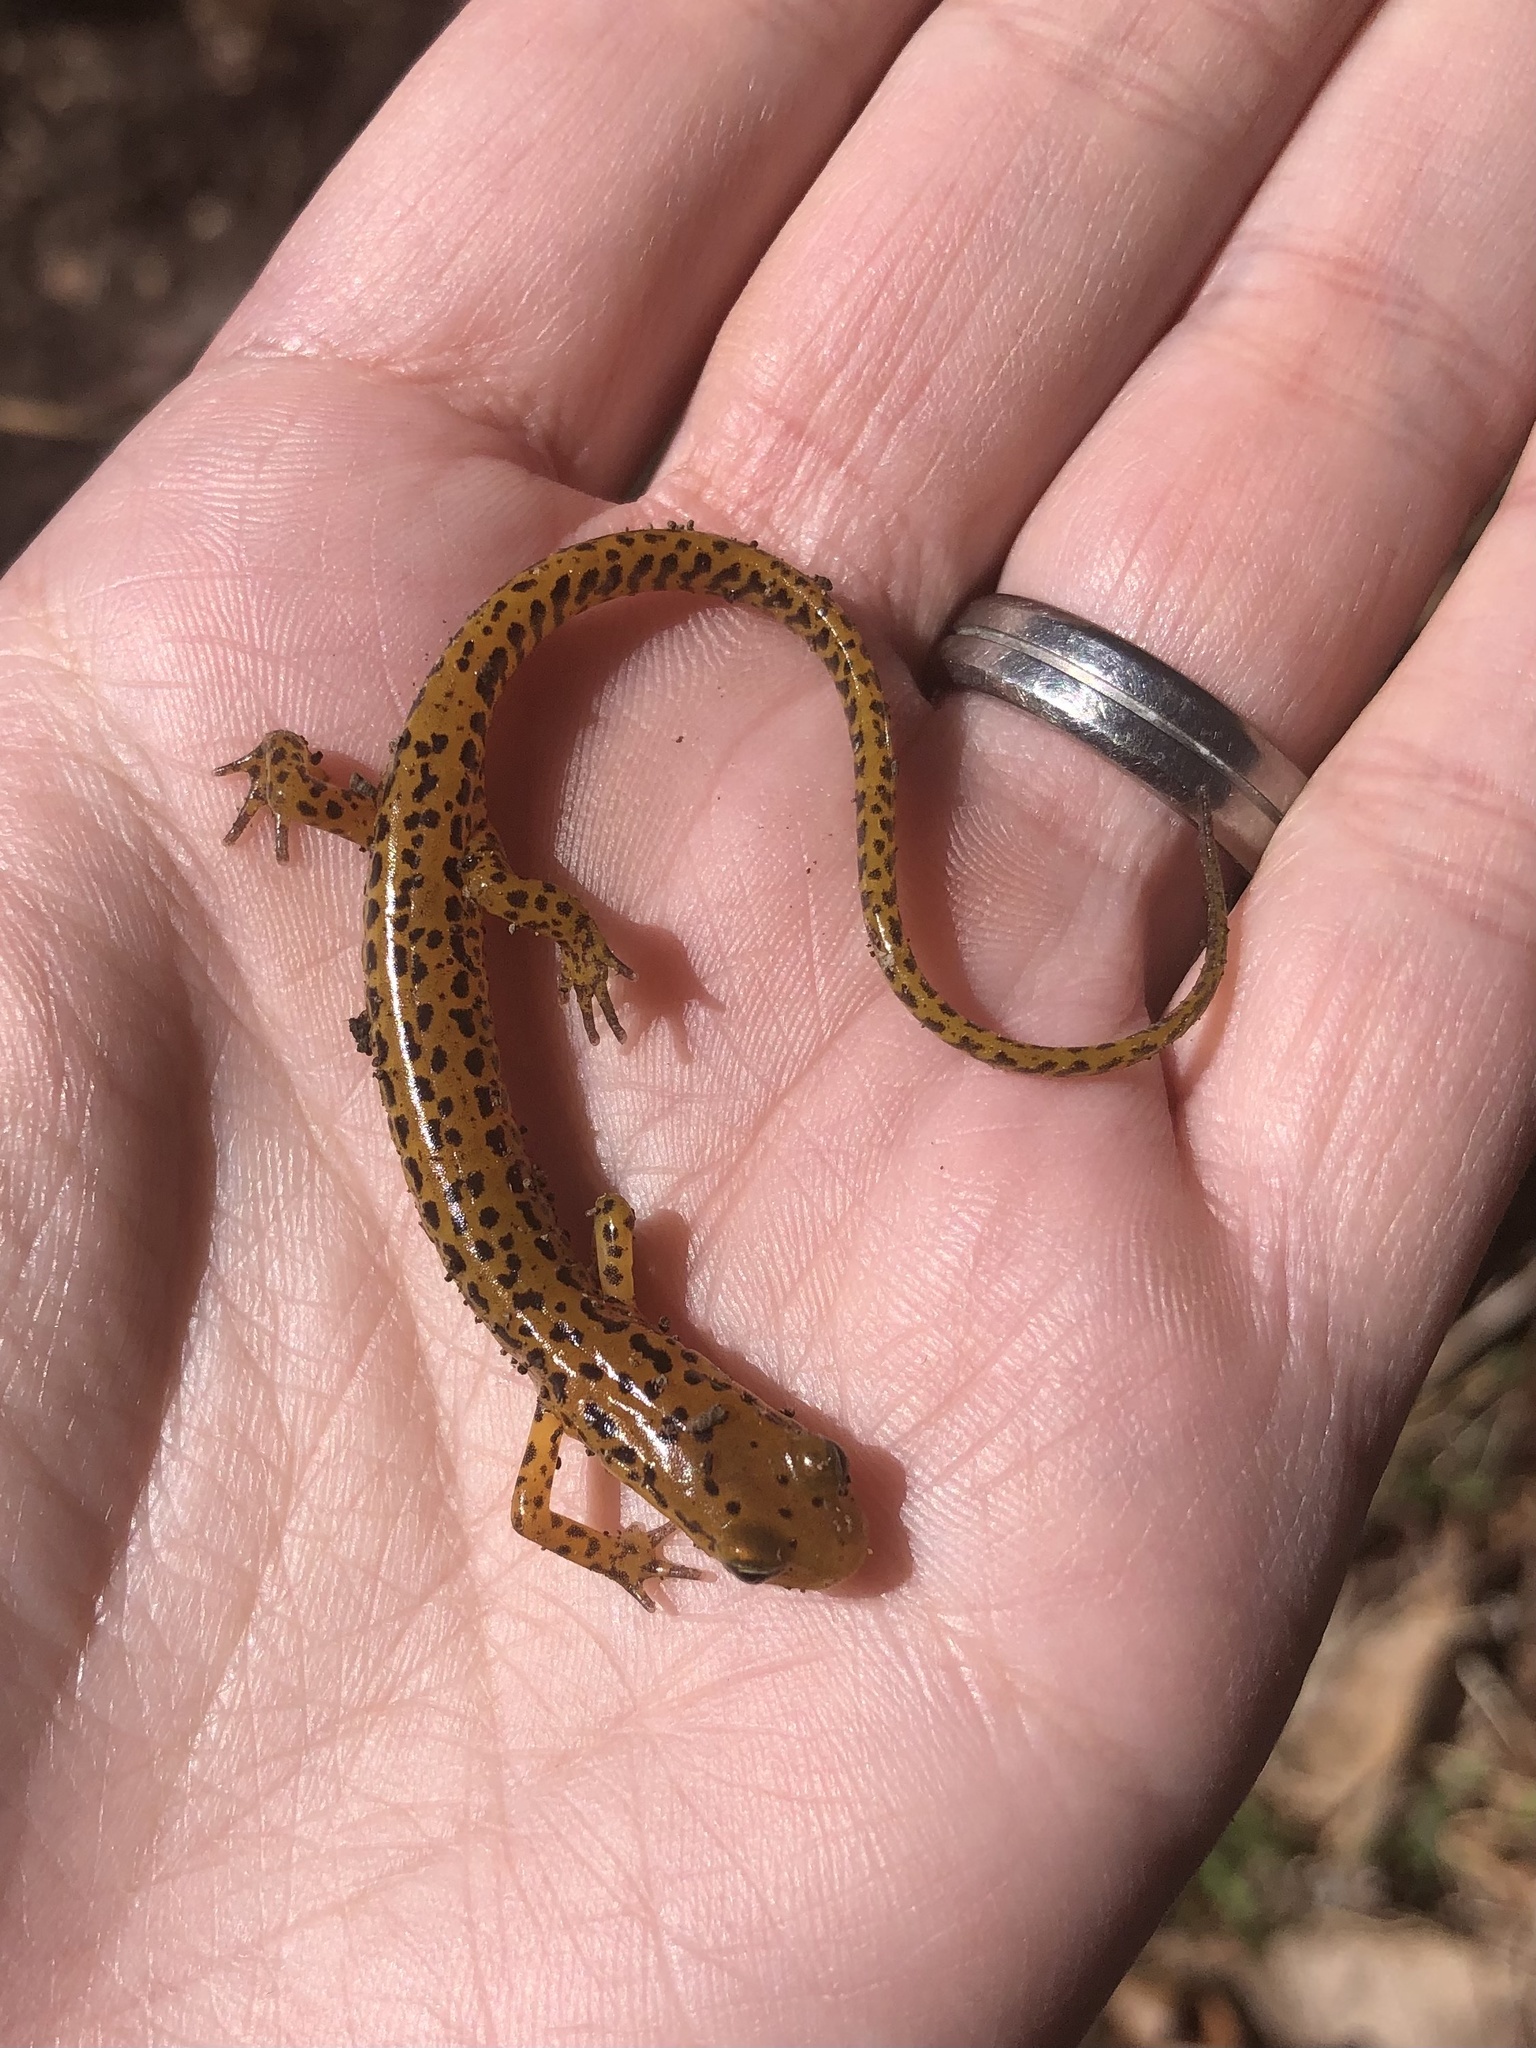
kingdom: Animalia
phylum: Chordata
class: Amphibia
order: Caudata
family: Plethodontidae
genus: Eurycea
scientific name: Eurycea longicauda
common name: Long-tailed salamander
